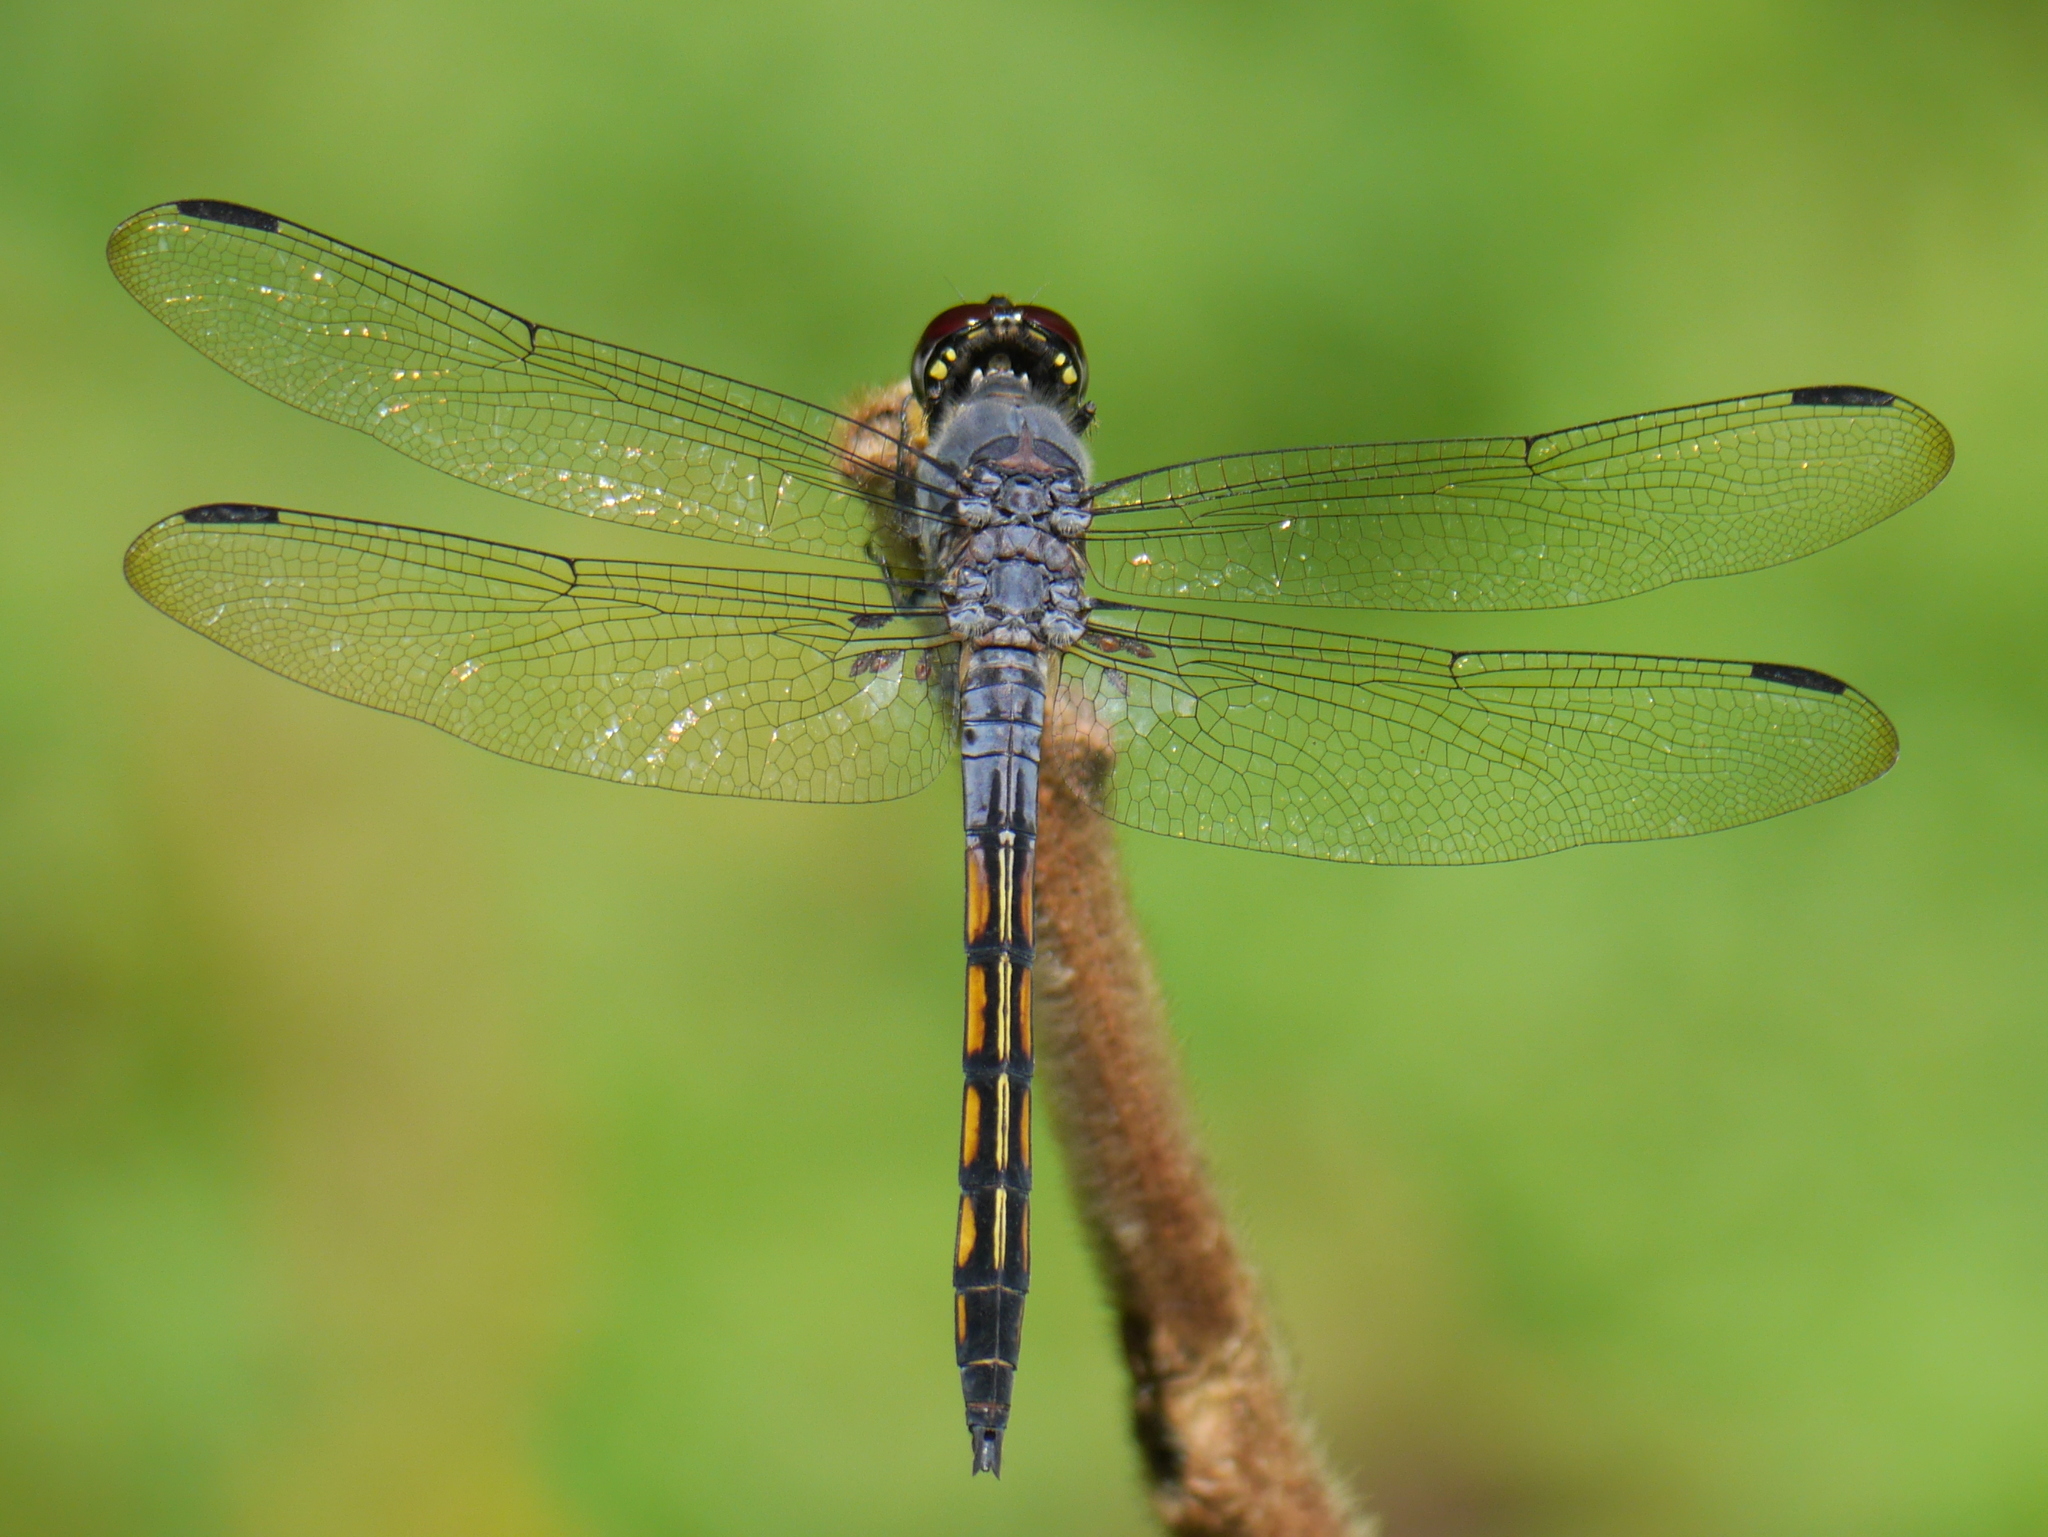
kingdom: Animalia
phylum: Arthropoda
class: Insecta
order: Odonata
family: Libellulidae
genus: Potamarcha
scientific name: Potamarcha congener
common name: Blue chaser
